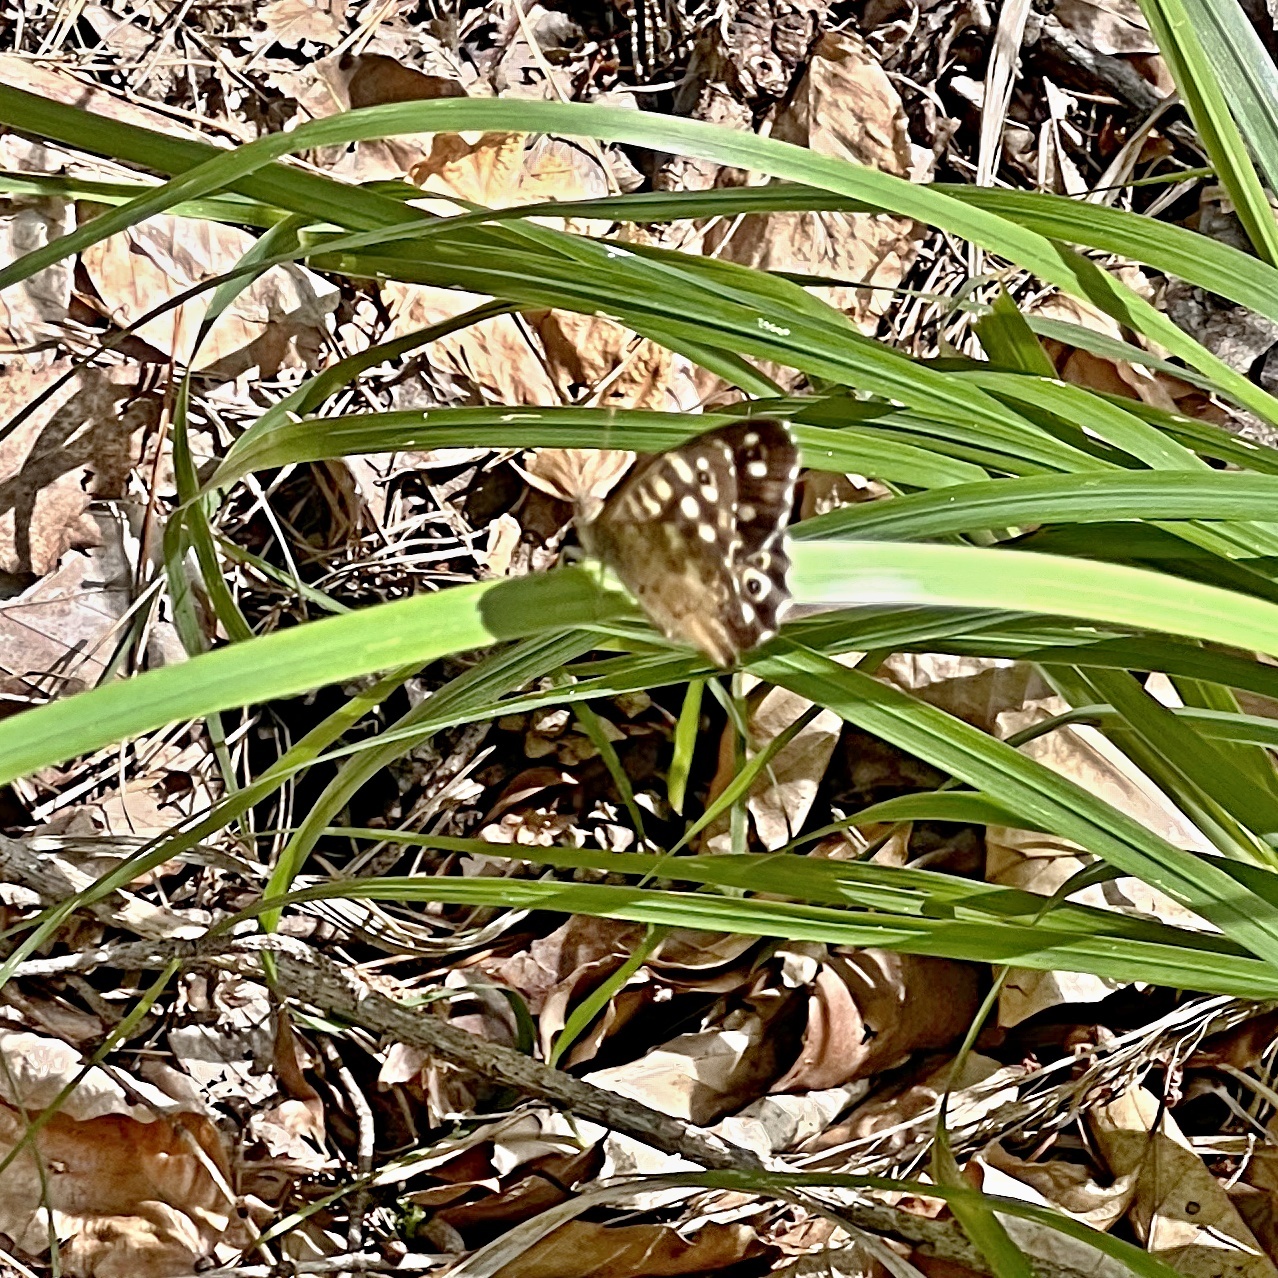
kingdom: Animalia
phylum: Arthropoda
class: Insecta
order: Lepidoptera
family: Nymphalidae
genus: Pararge
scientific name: Pararge aegeria
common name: Speckled wood
